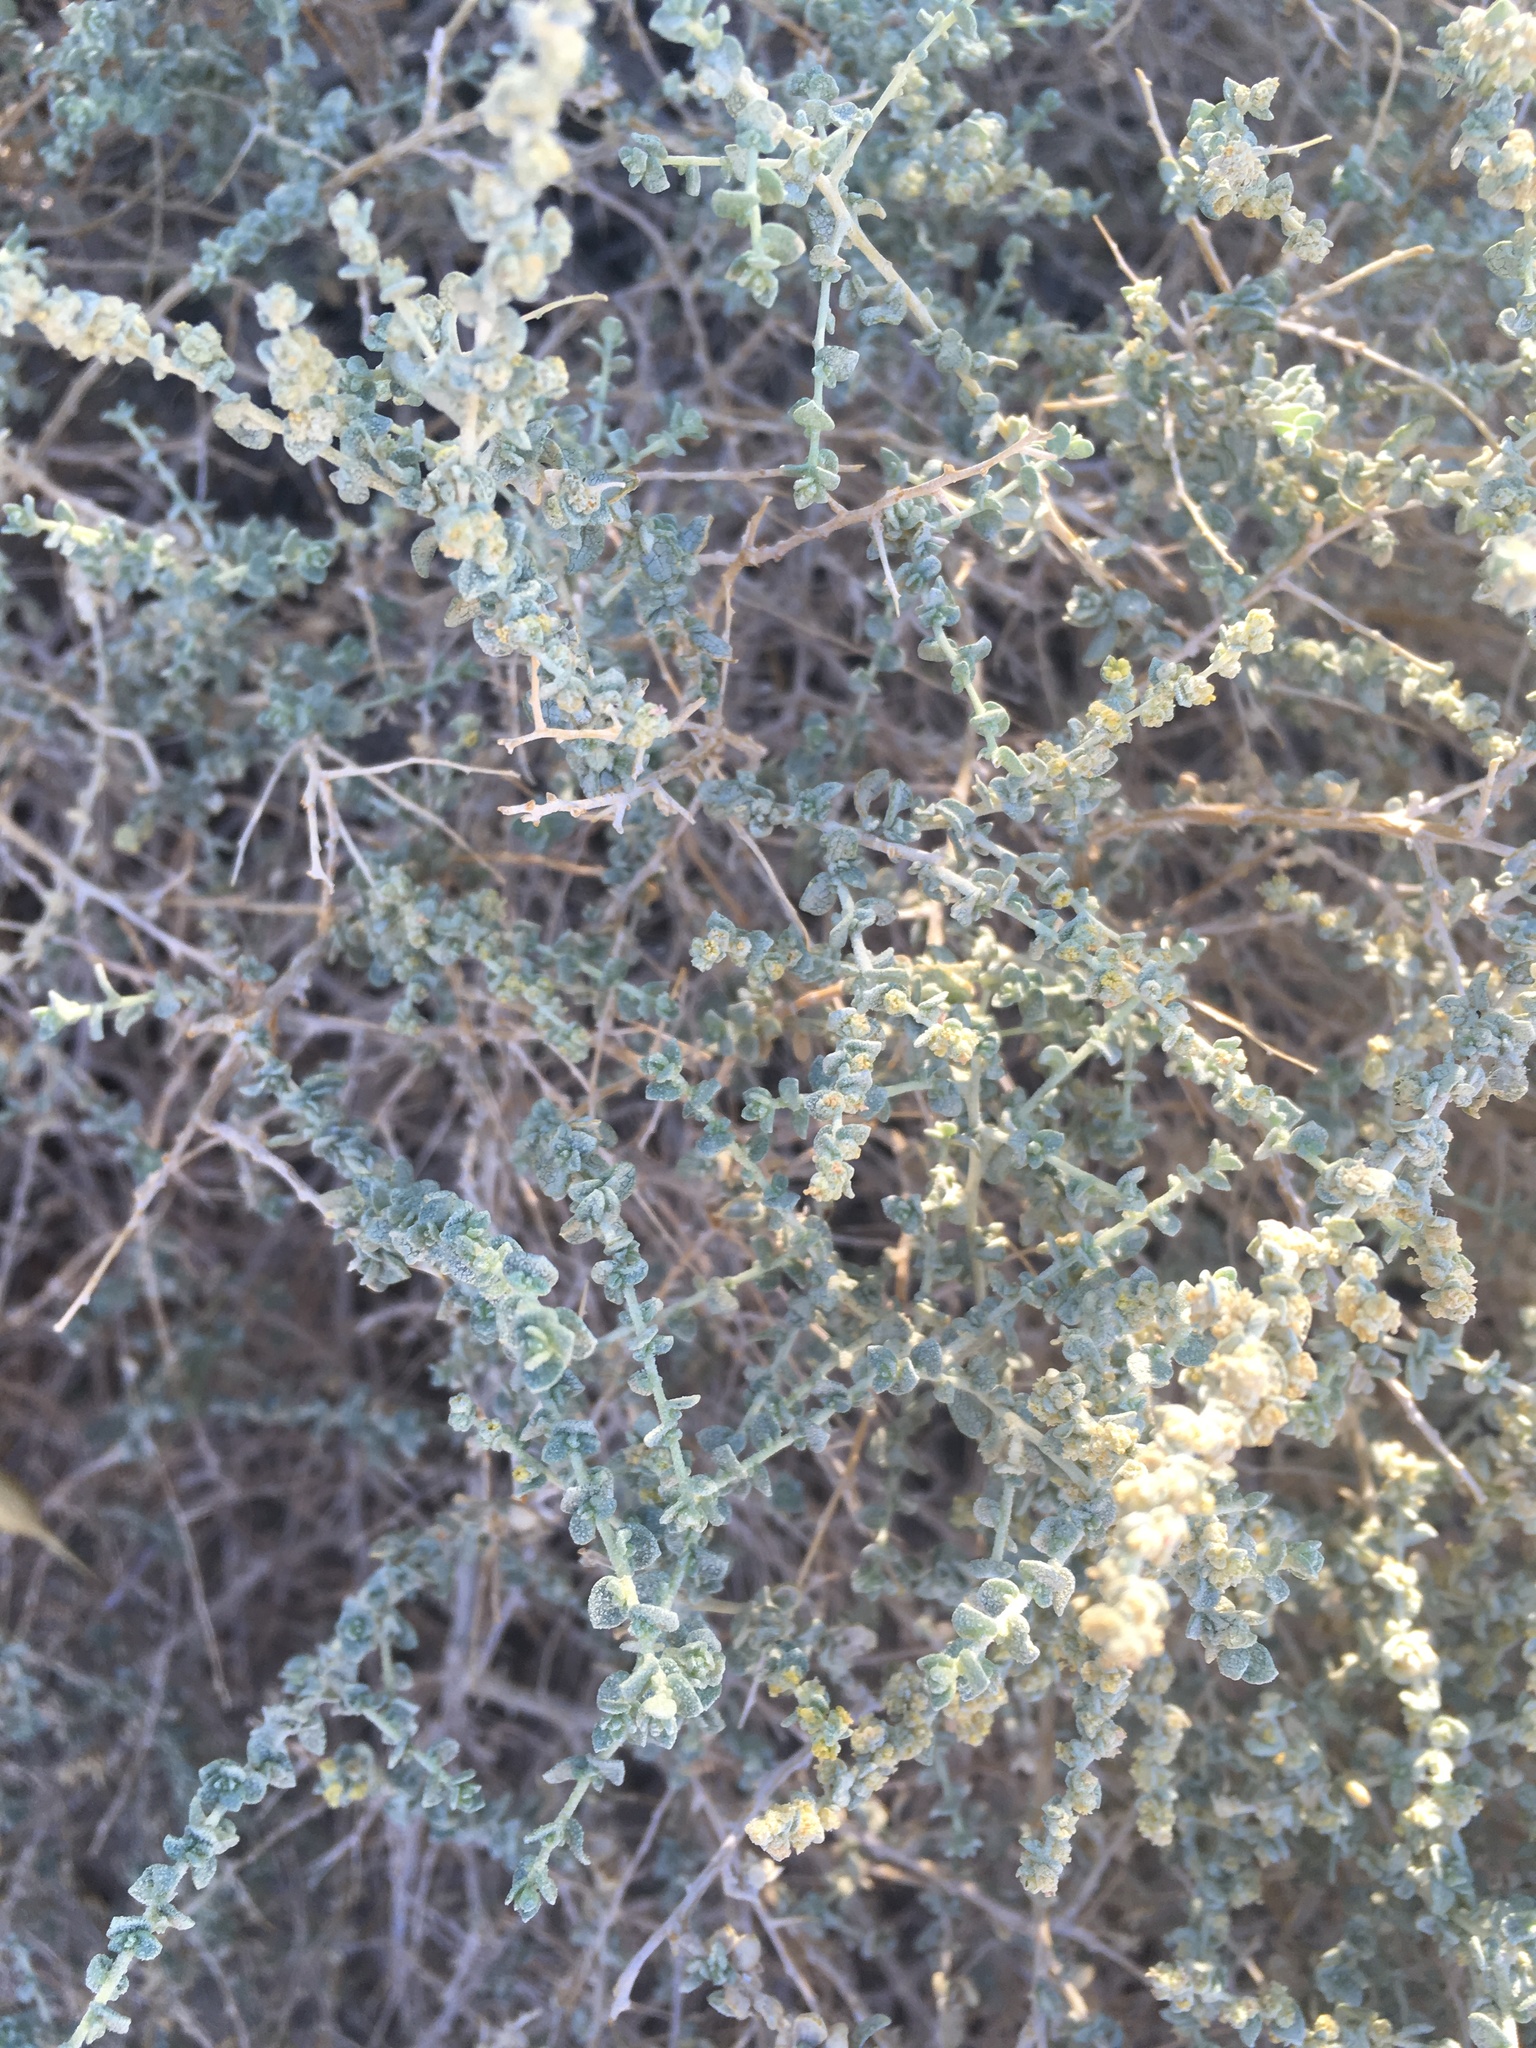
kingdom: Plantae
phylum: Tracheophyta
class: Magnoliopsida
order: Caryophyllales
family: Amaranthaceae
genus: Atriplex
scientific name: Atriplex polycarpa
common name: Desert saltbush
